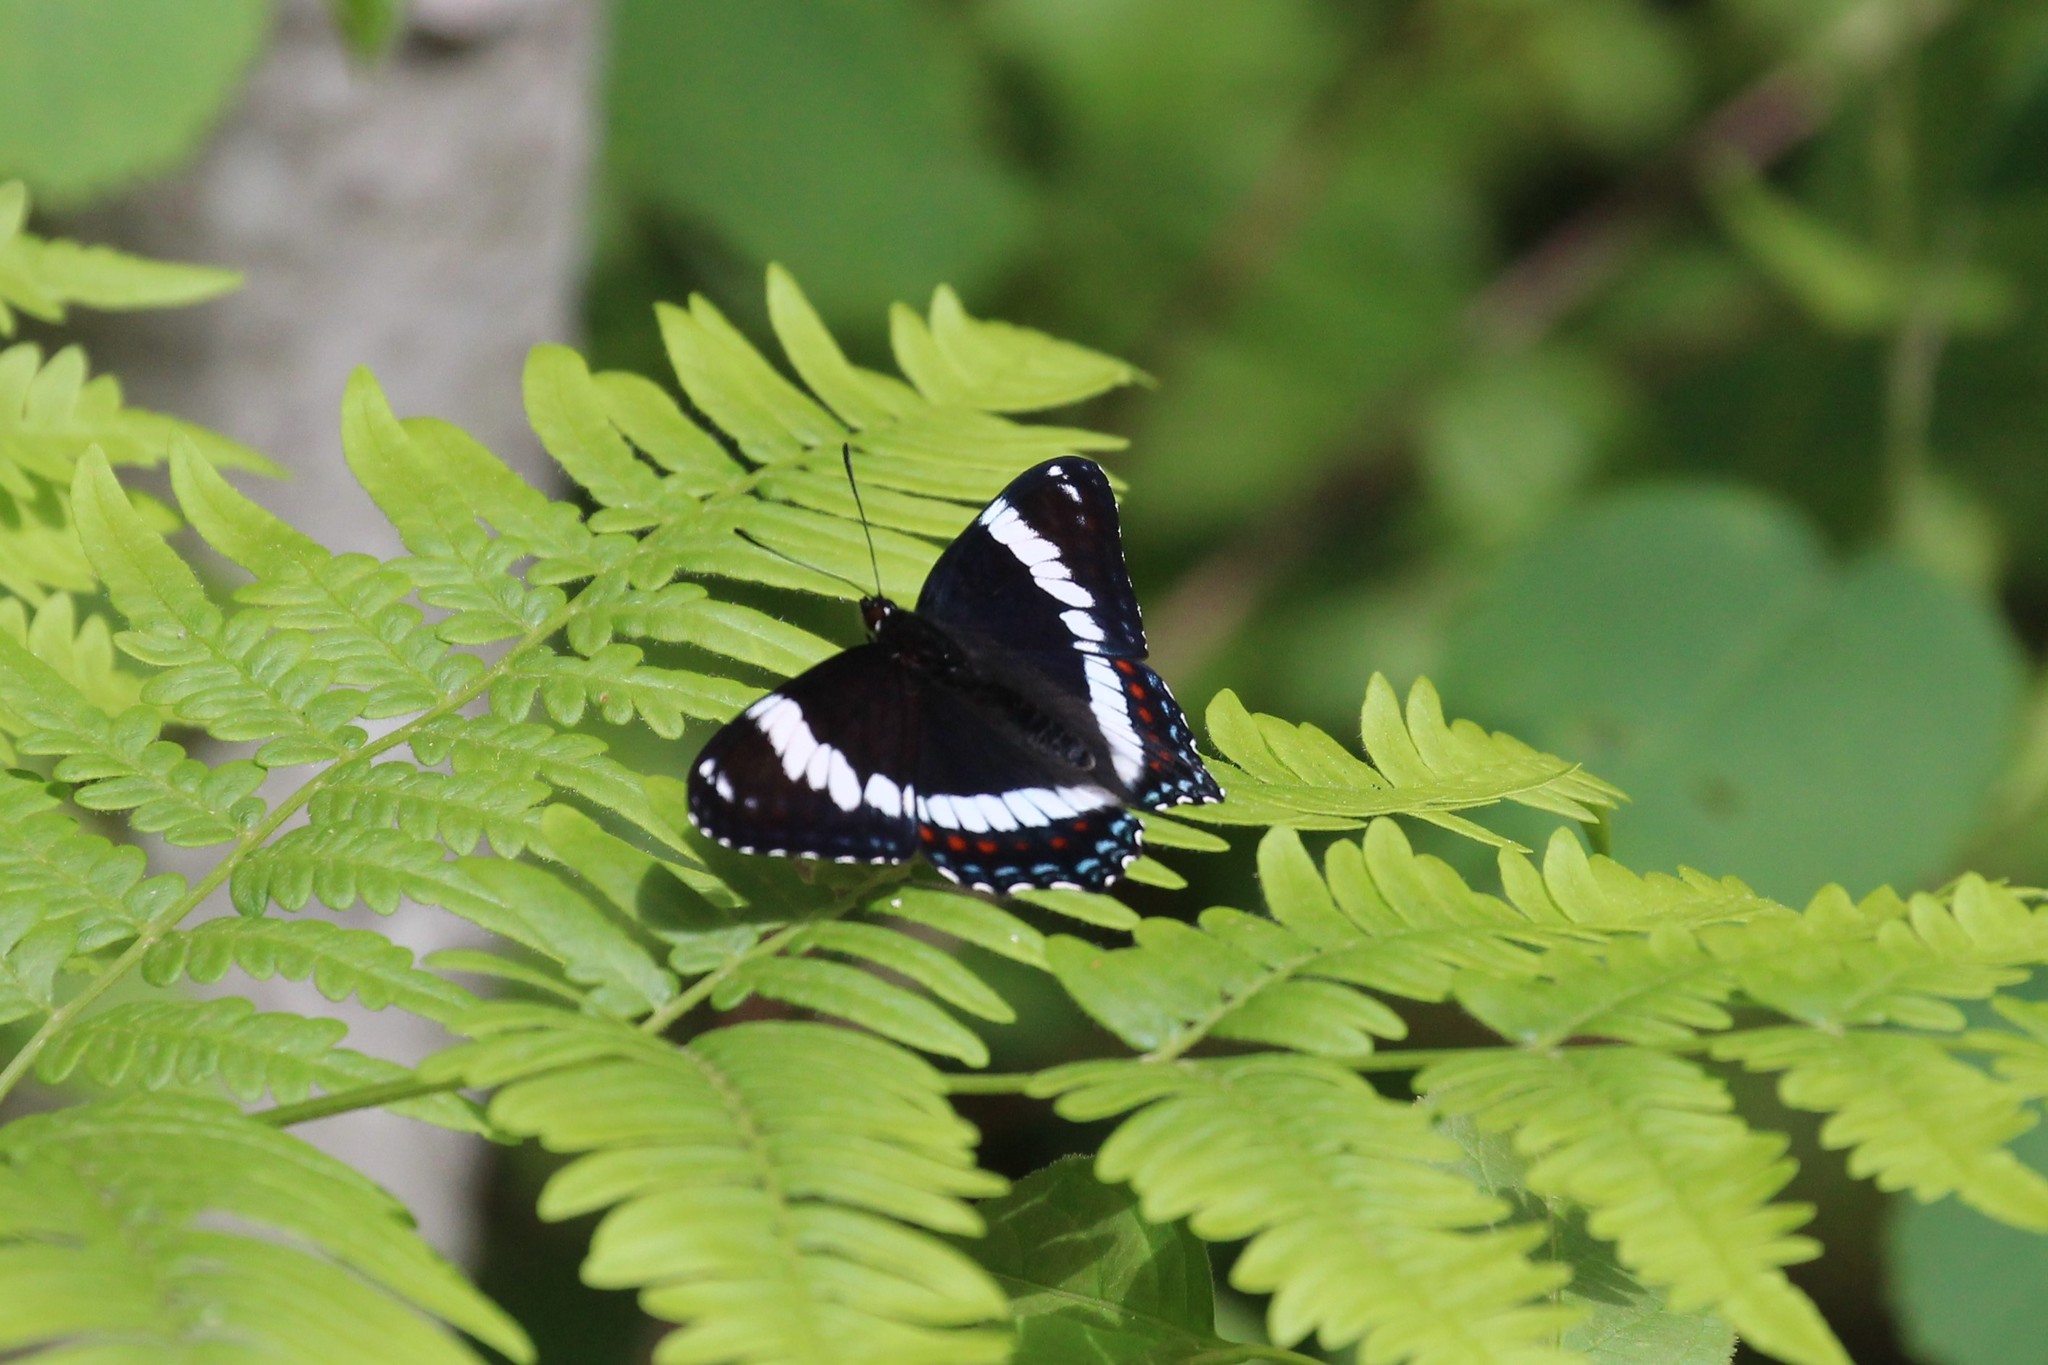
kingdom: Animalia
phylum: Arthropoda
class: Insecta
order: Lepidoptera
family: Nymphalidae
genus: Limenitis
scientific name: Limenitis arthemis
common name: Red-spotted admiral
